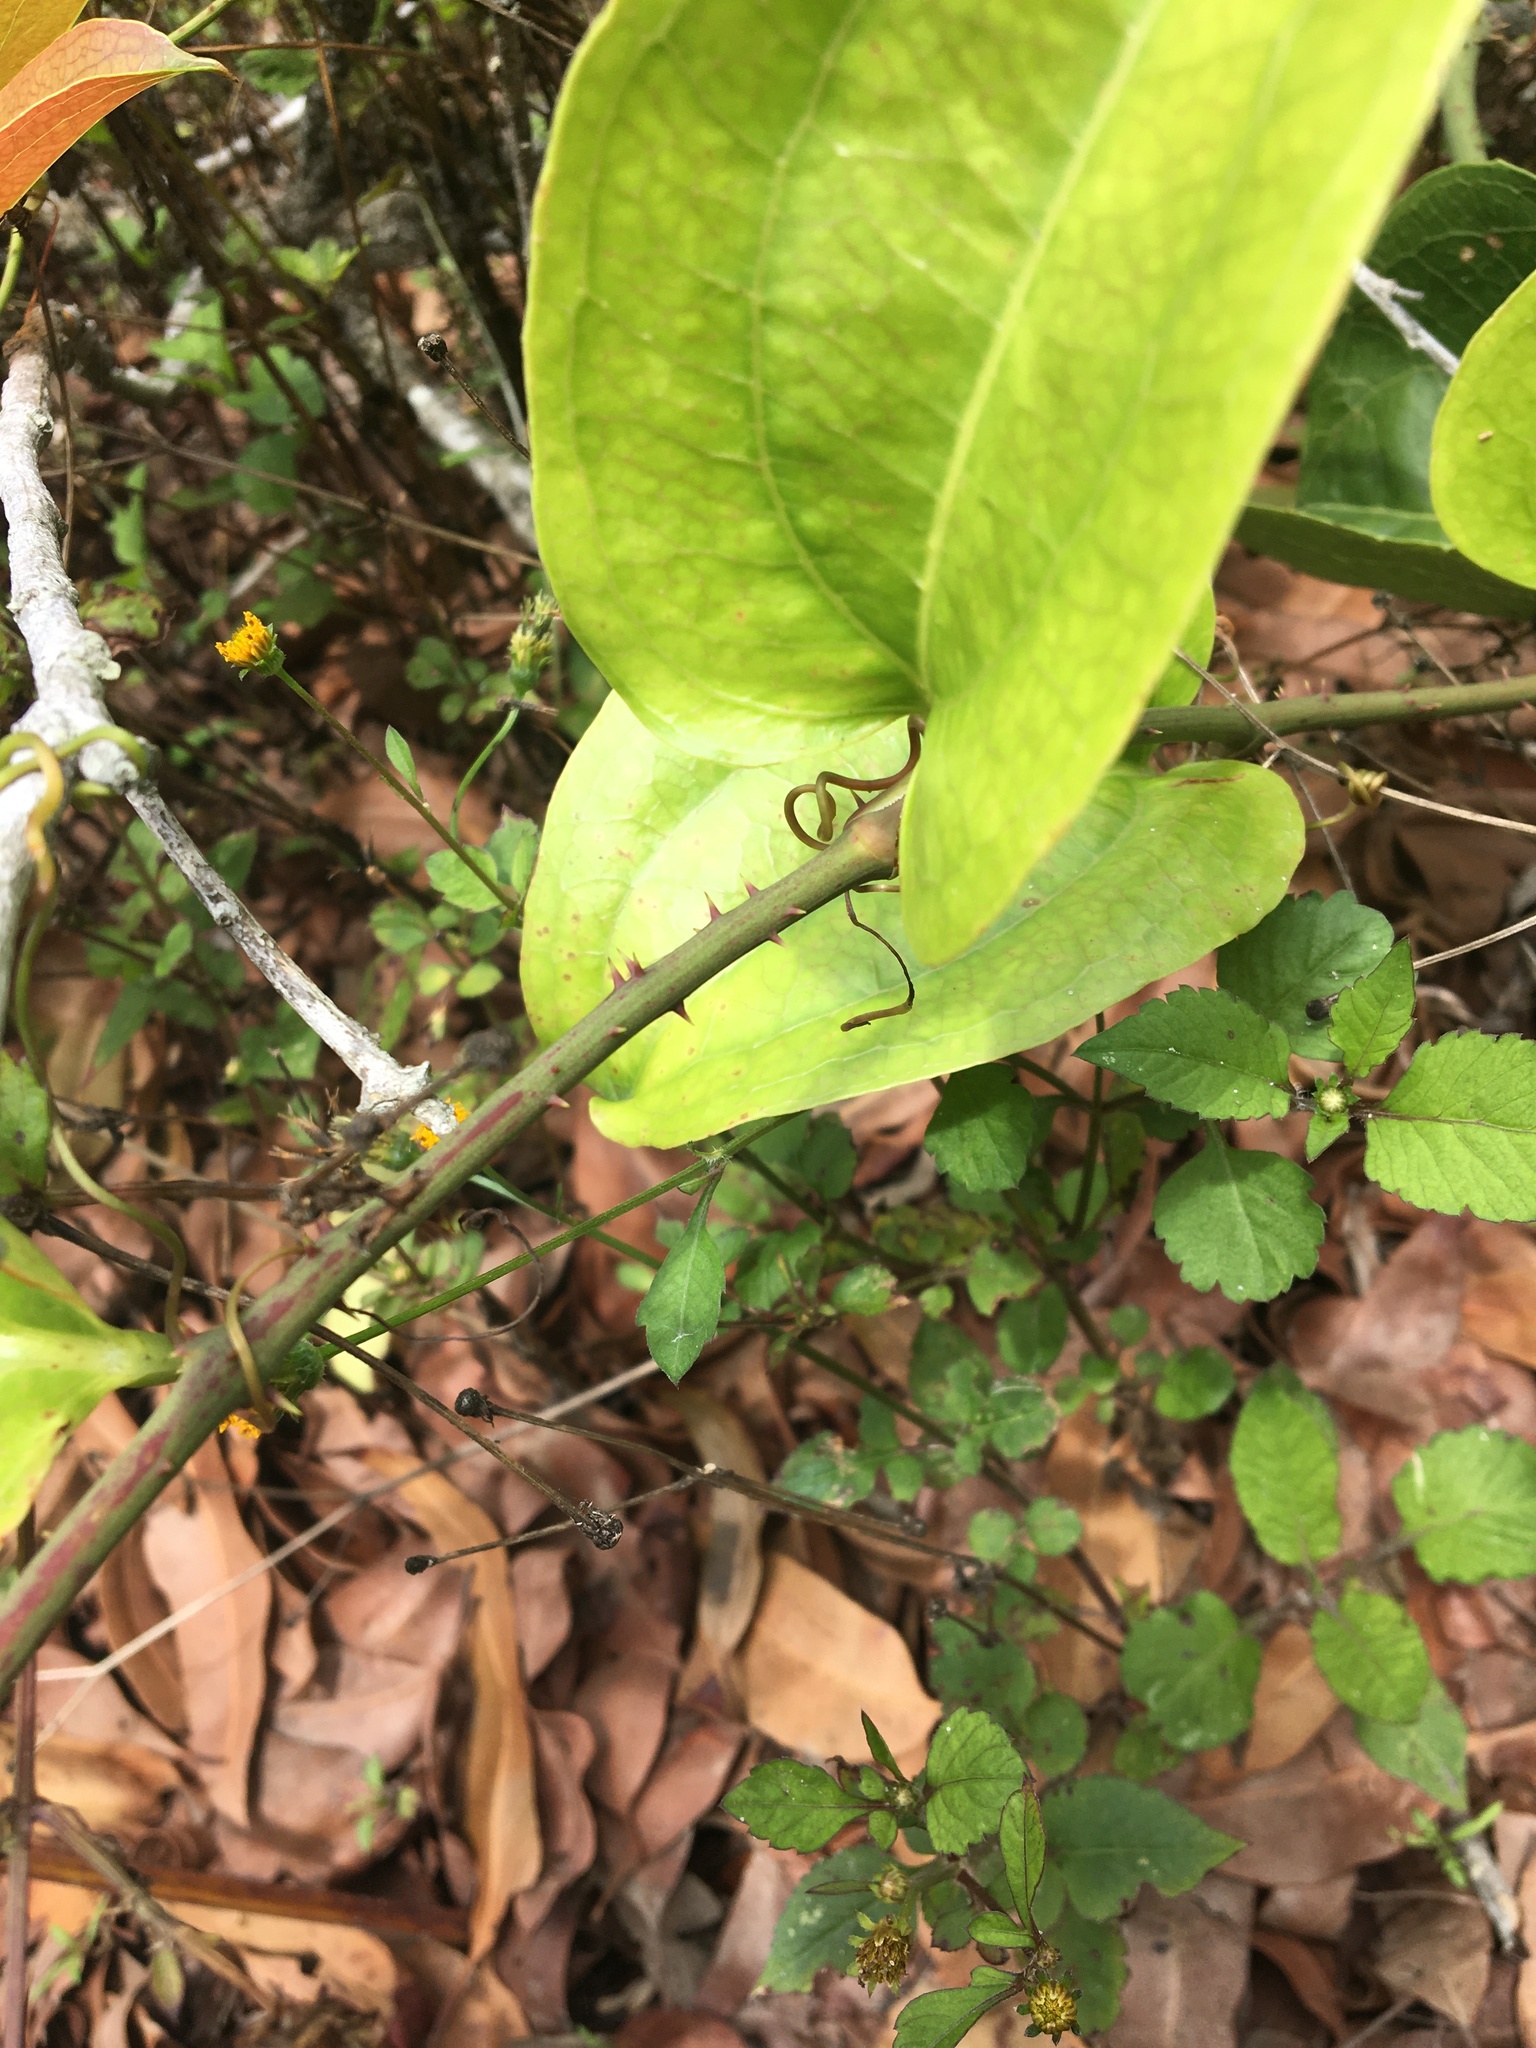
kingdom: Plantae
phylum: Tracheophyta
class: Liliopsida
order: Liliales
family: Smilacaceae
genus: Smilax
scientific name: Smilax australis
